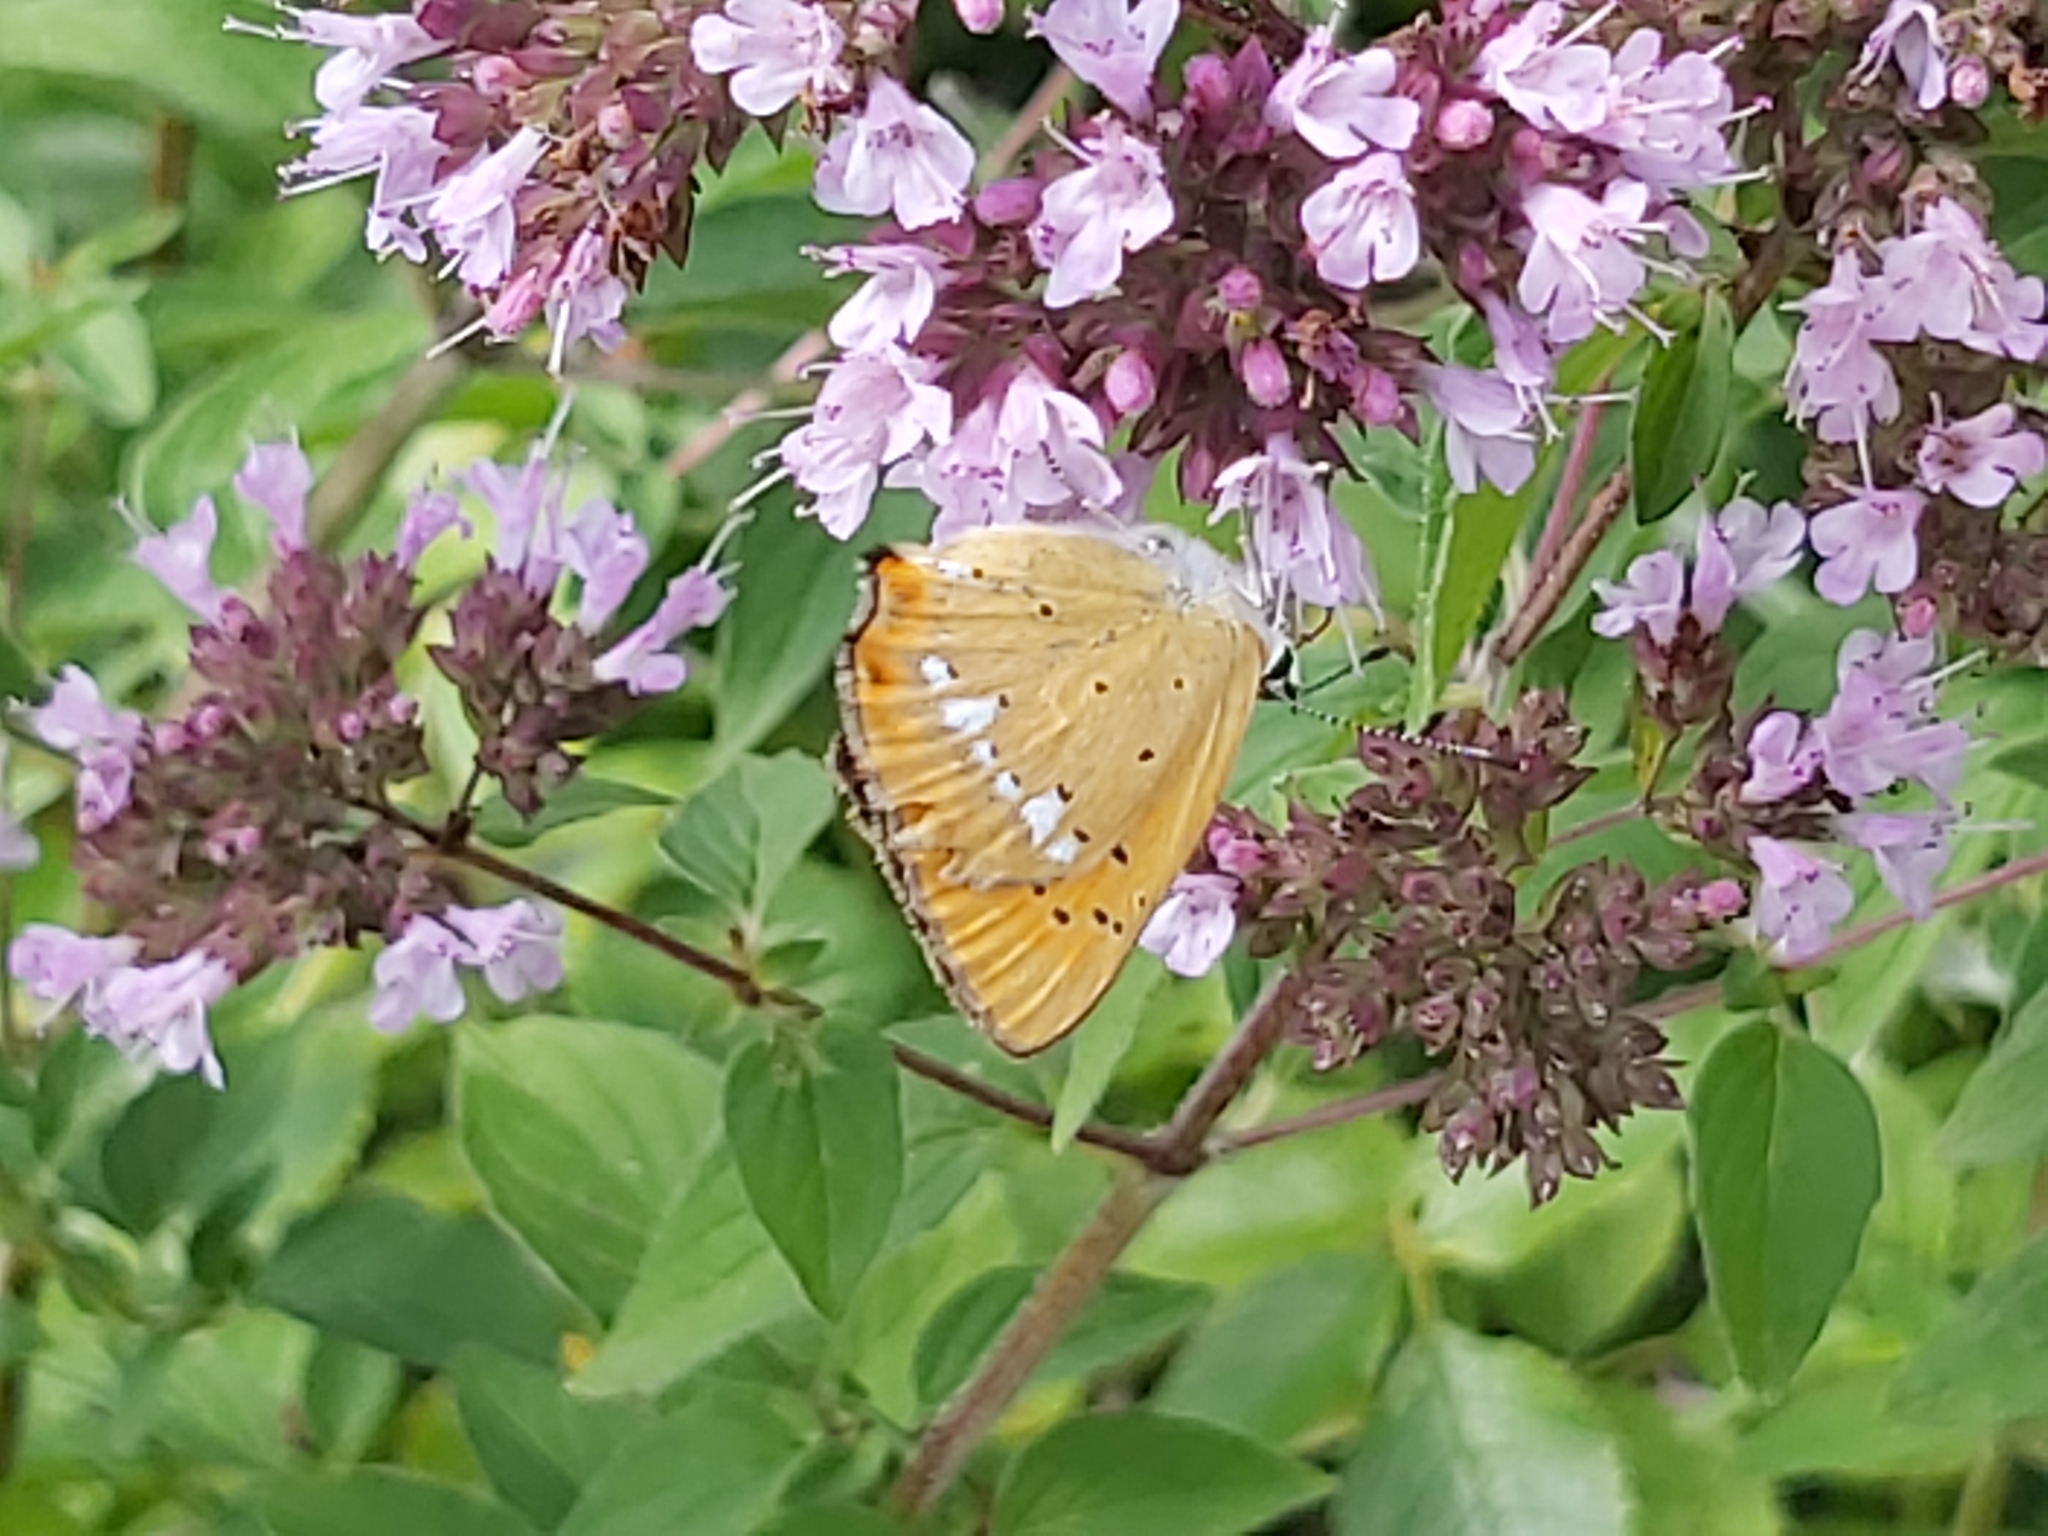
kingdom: Animalia
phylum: Arthropoda
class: Insecta
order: Lepidoptera
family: Lycaenidae
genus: Lycaena
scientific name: Lycaena virgaureae
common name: Scarce copper
